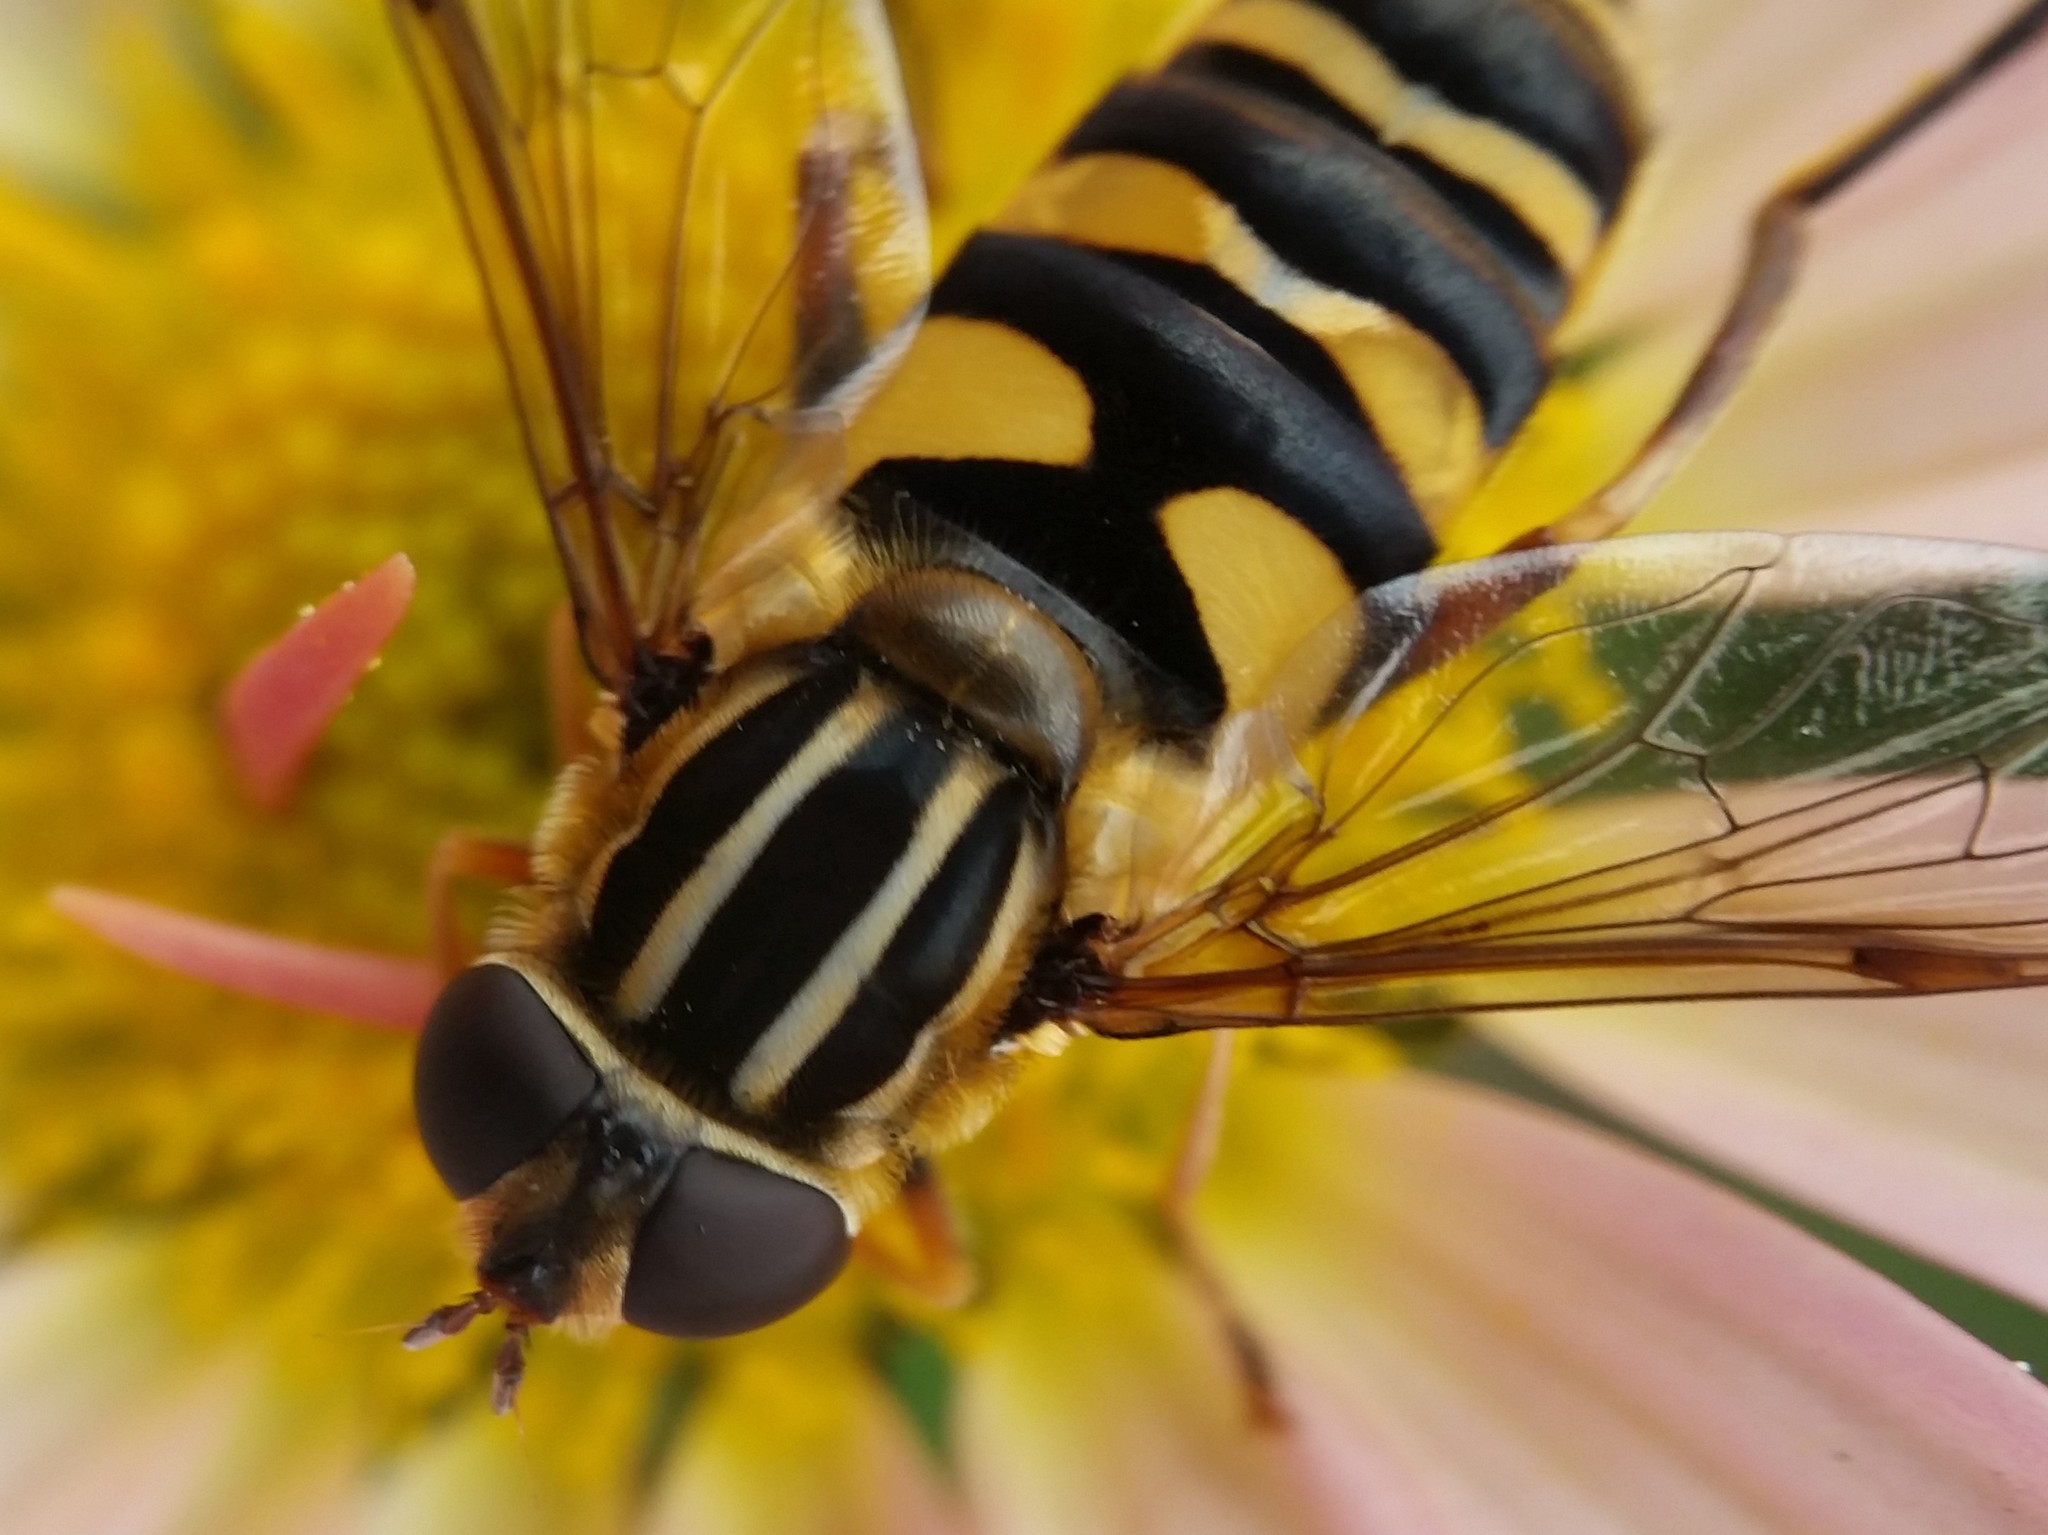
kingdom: Animalia
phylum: Arthropoda
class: Insecta
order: Diptera
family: Syrphidae
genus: Helophilus
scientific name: Helophilus fasciatus
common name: Narrow-headed marsh fly
